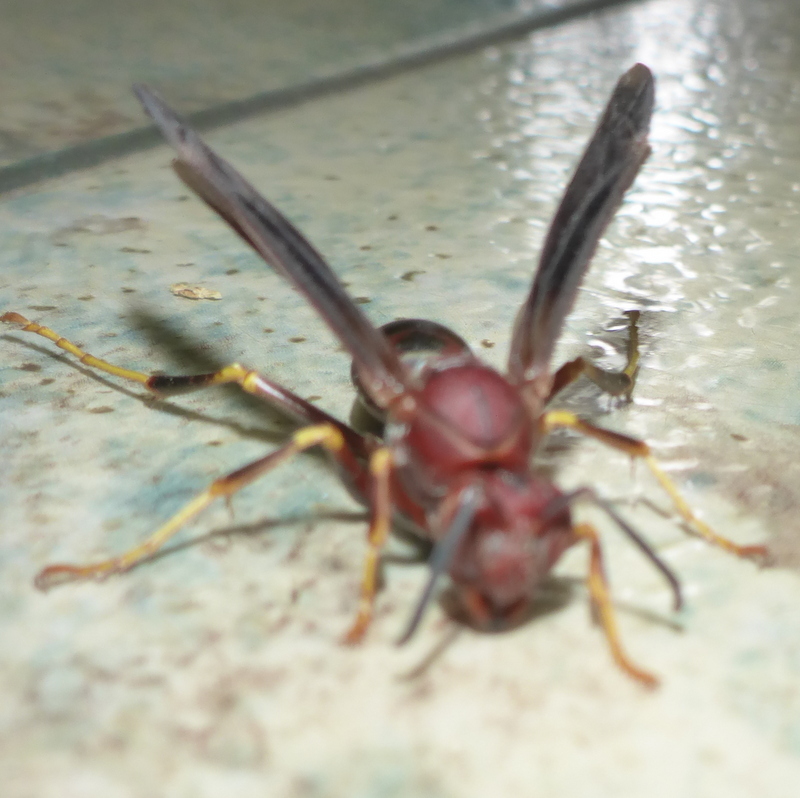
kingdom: Animalia
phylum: Arthropoda
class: Insecta
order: Hymenoptera
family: Eumenidae
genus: Polistes
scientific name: Polistes metricus
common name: Metric paper wasp
